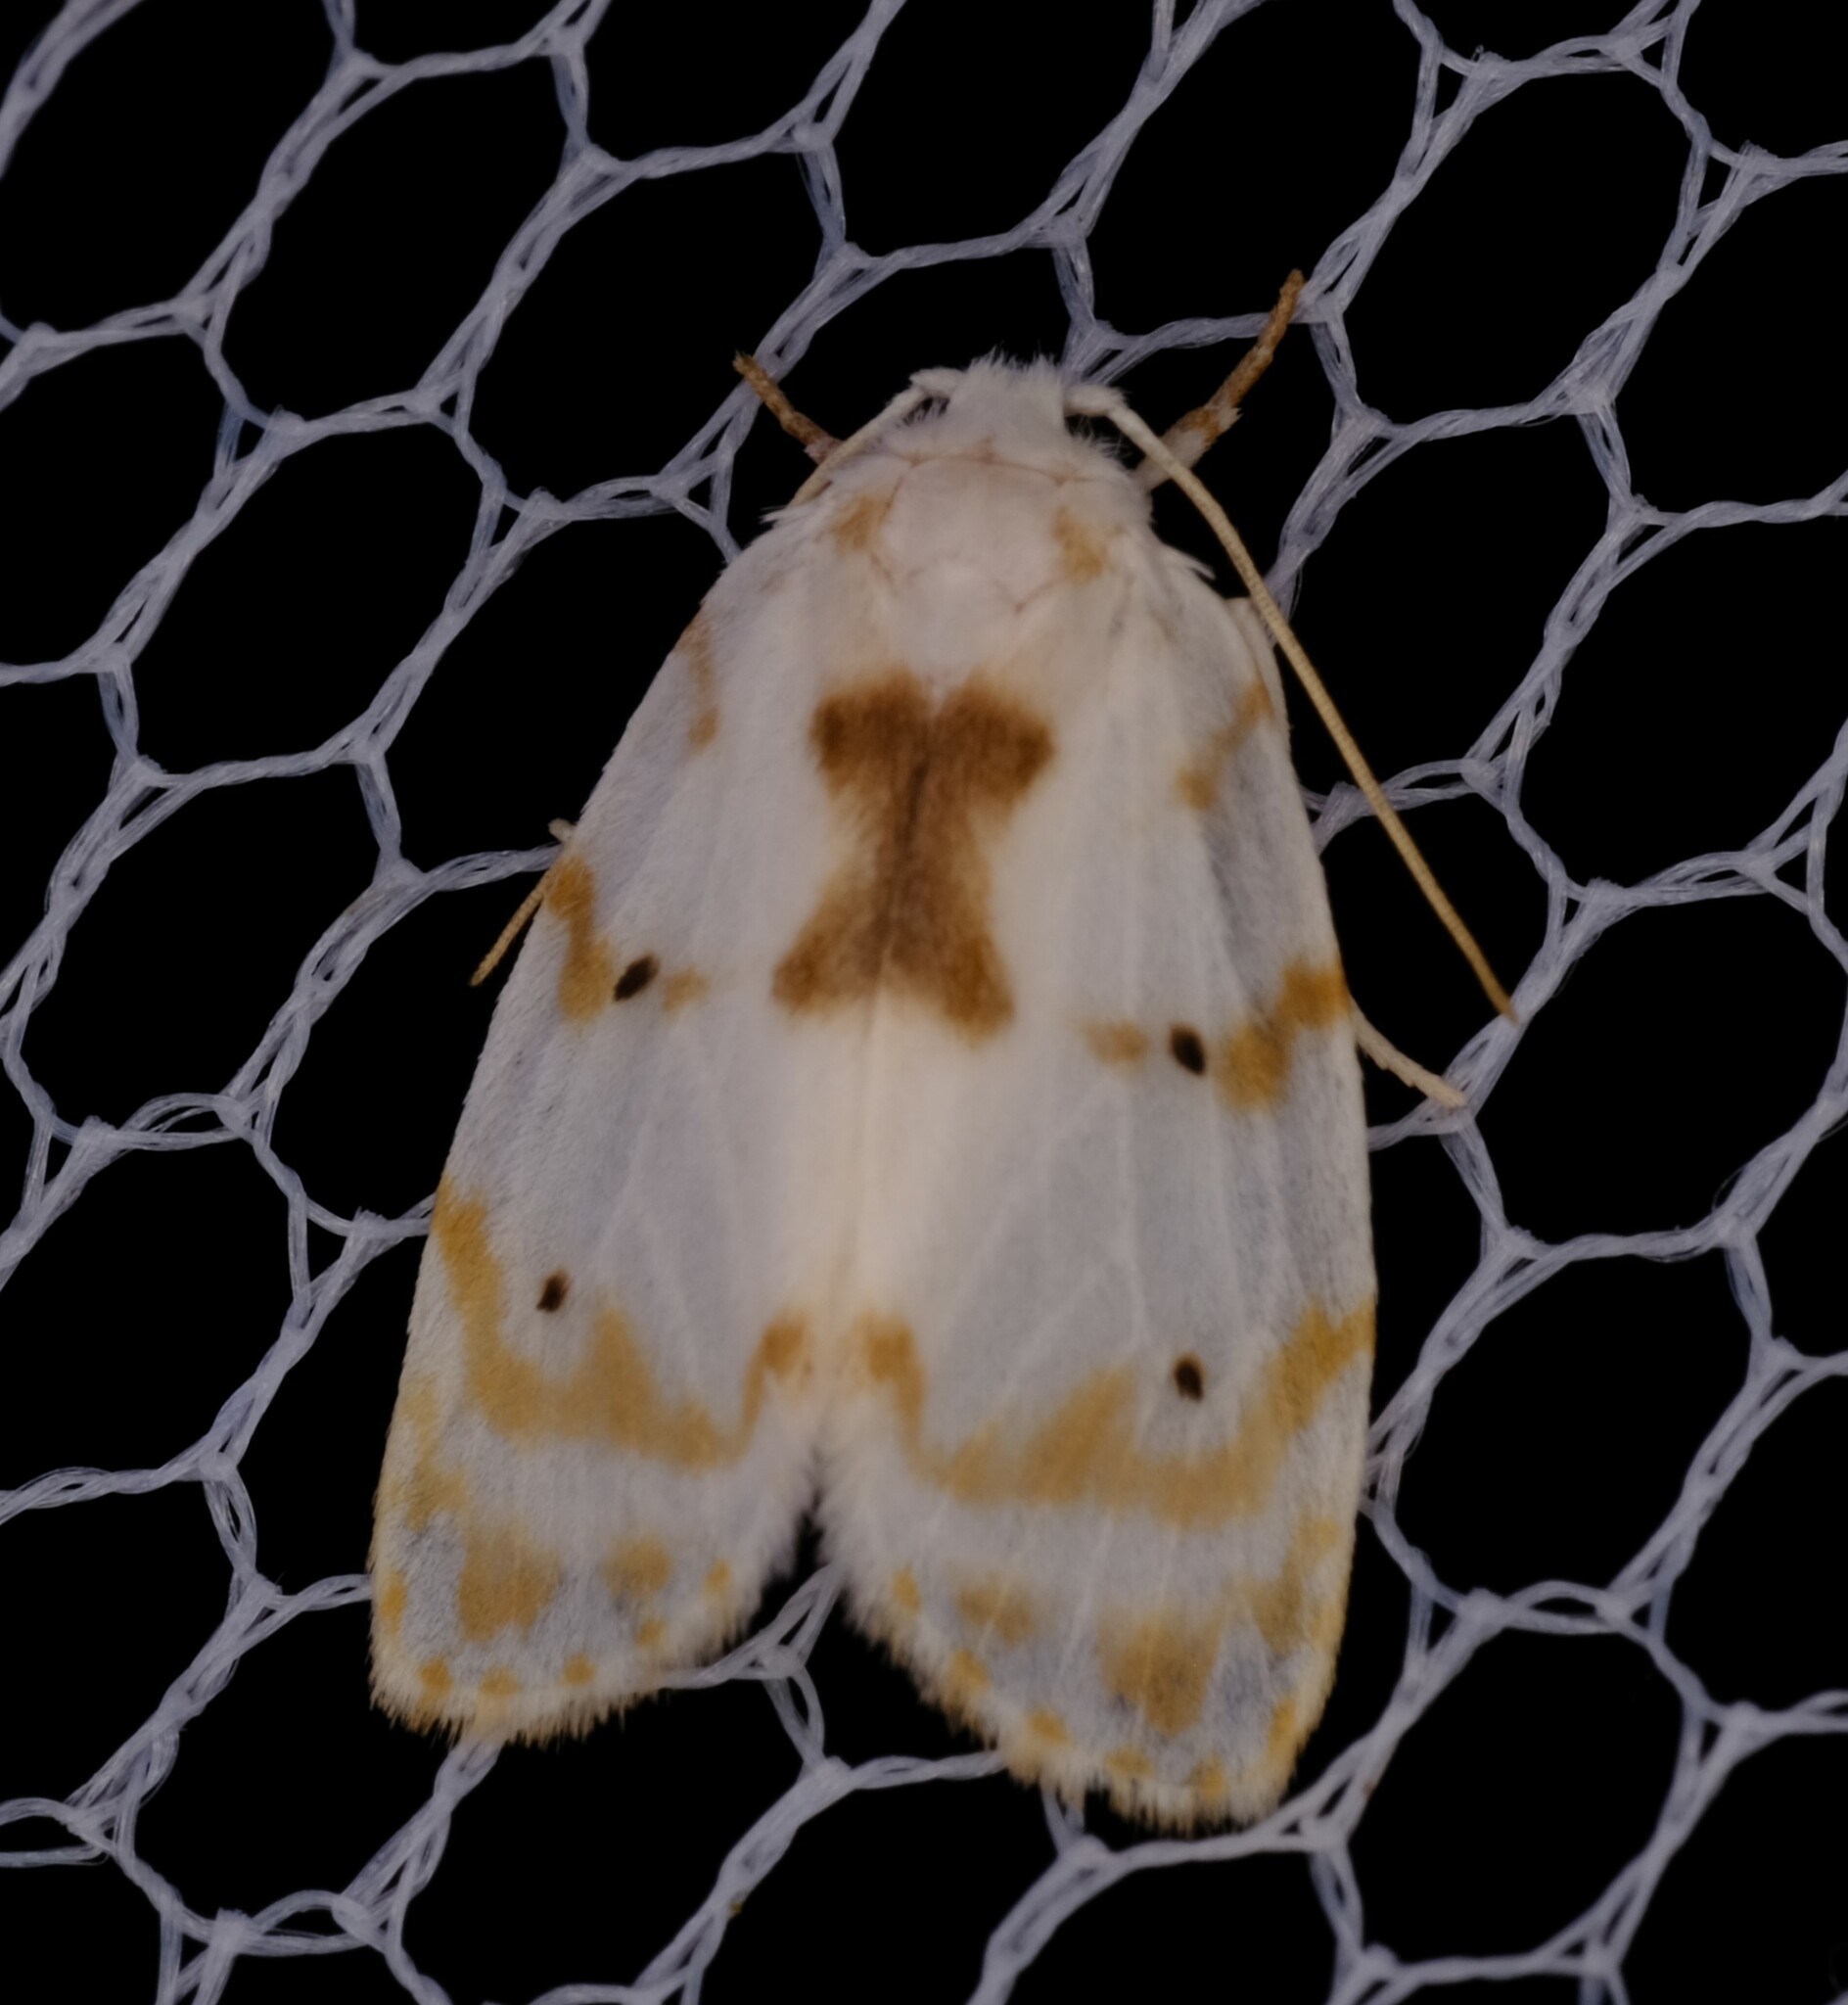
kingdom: Animalia
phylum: Arthropoda
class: Insecta
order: Lepidoptera
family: Erebidae
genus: Schistophleps
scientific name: Schistophleps albida
